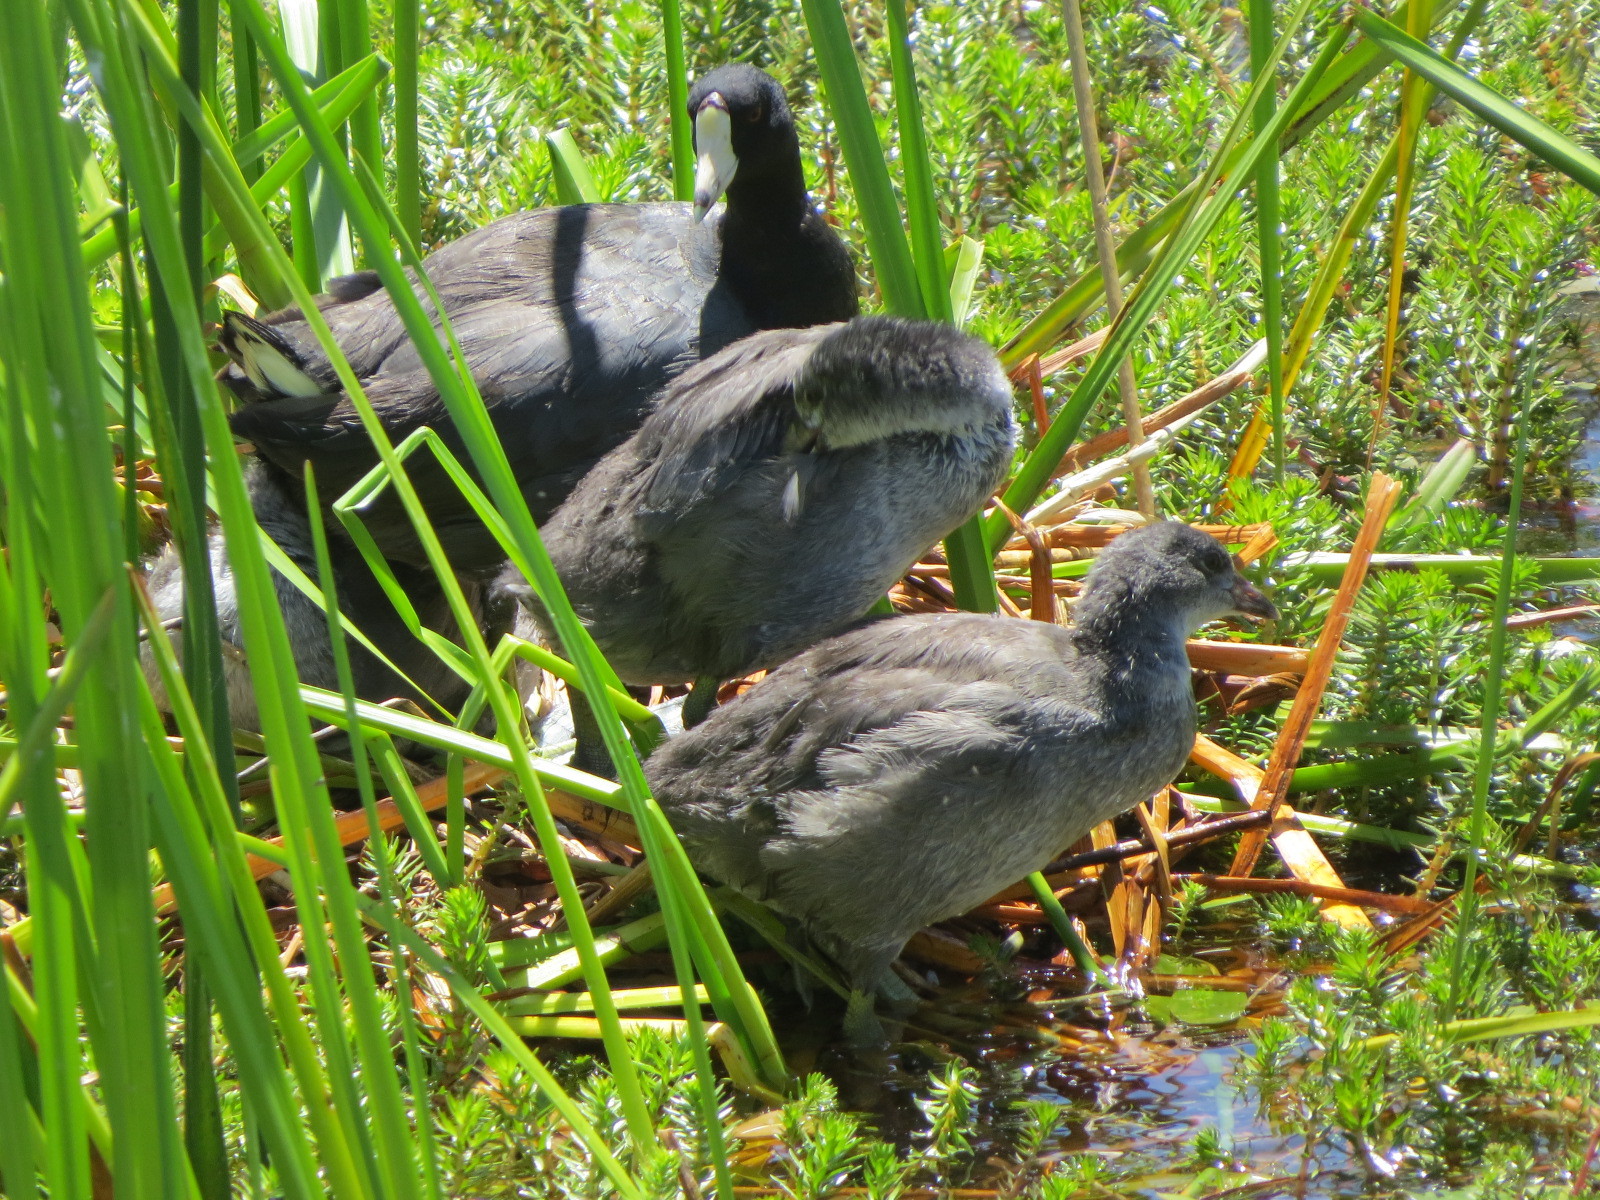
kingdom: Animalia
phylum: Chordata
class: Aves
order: Gruiformes
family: Rallidae
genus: Fulica
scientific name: Fulica americana
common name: American coot
